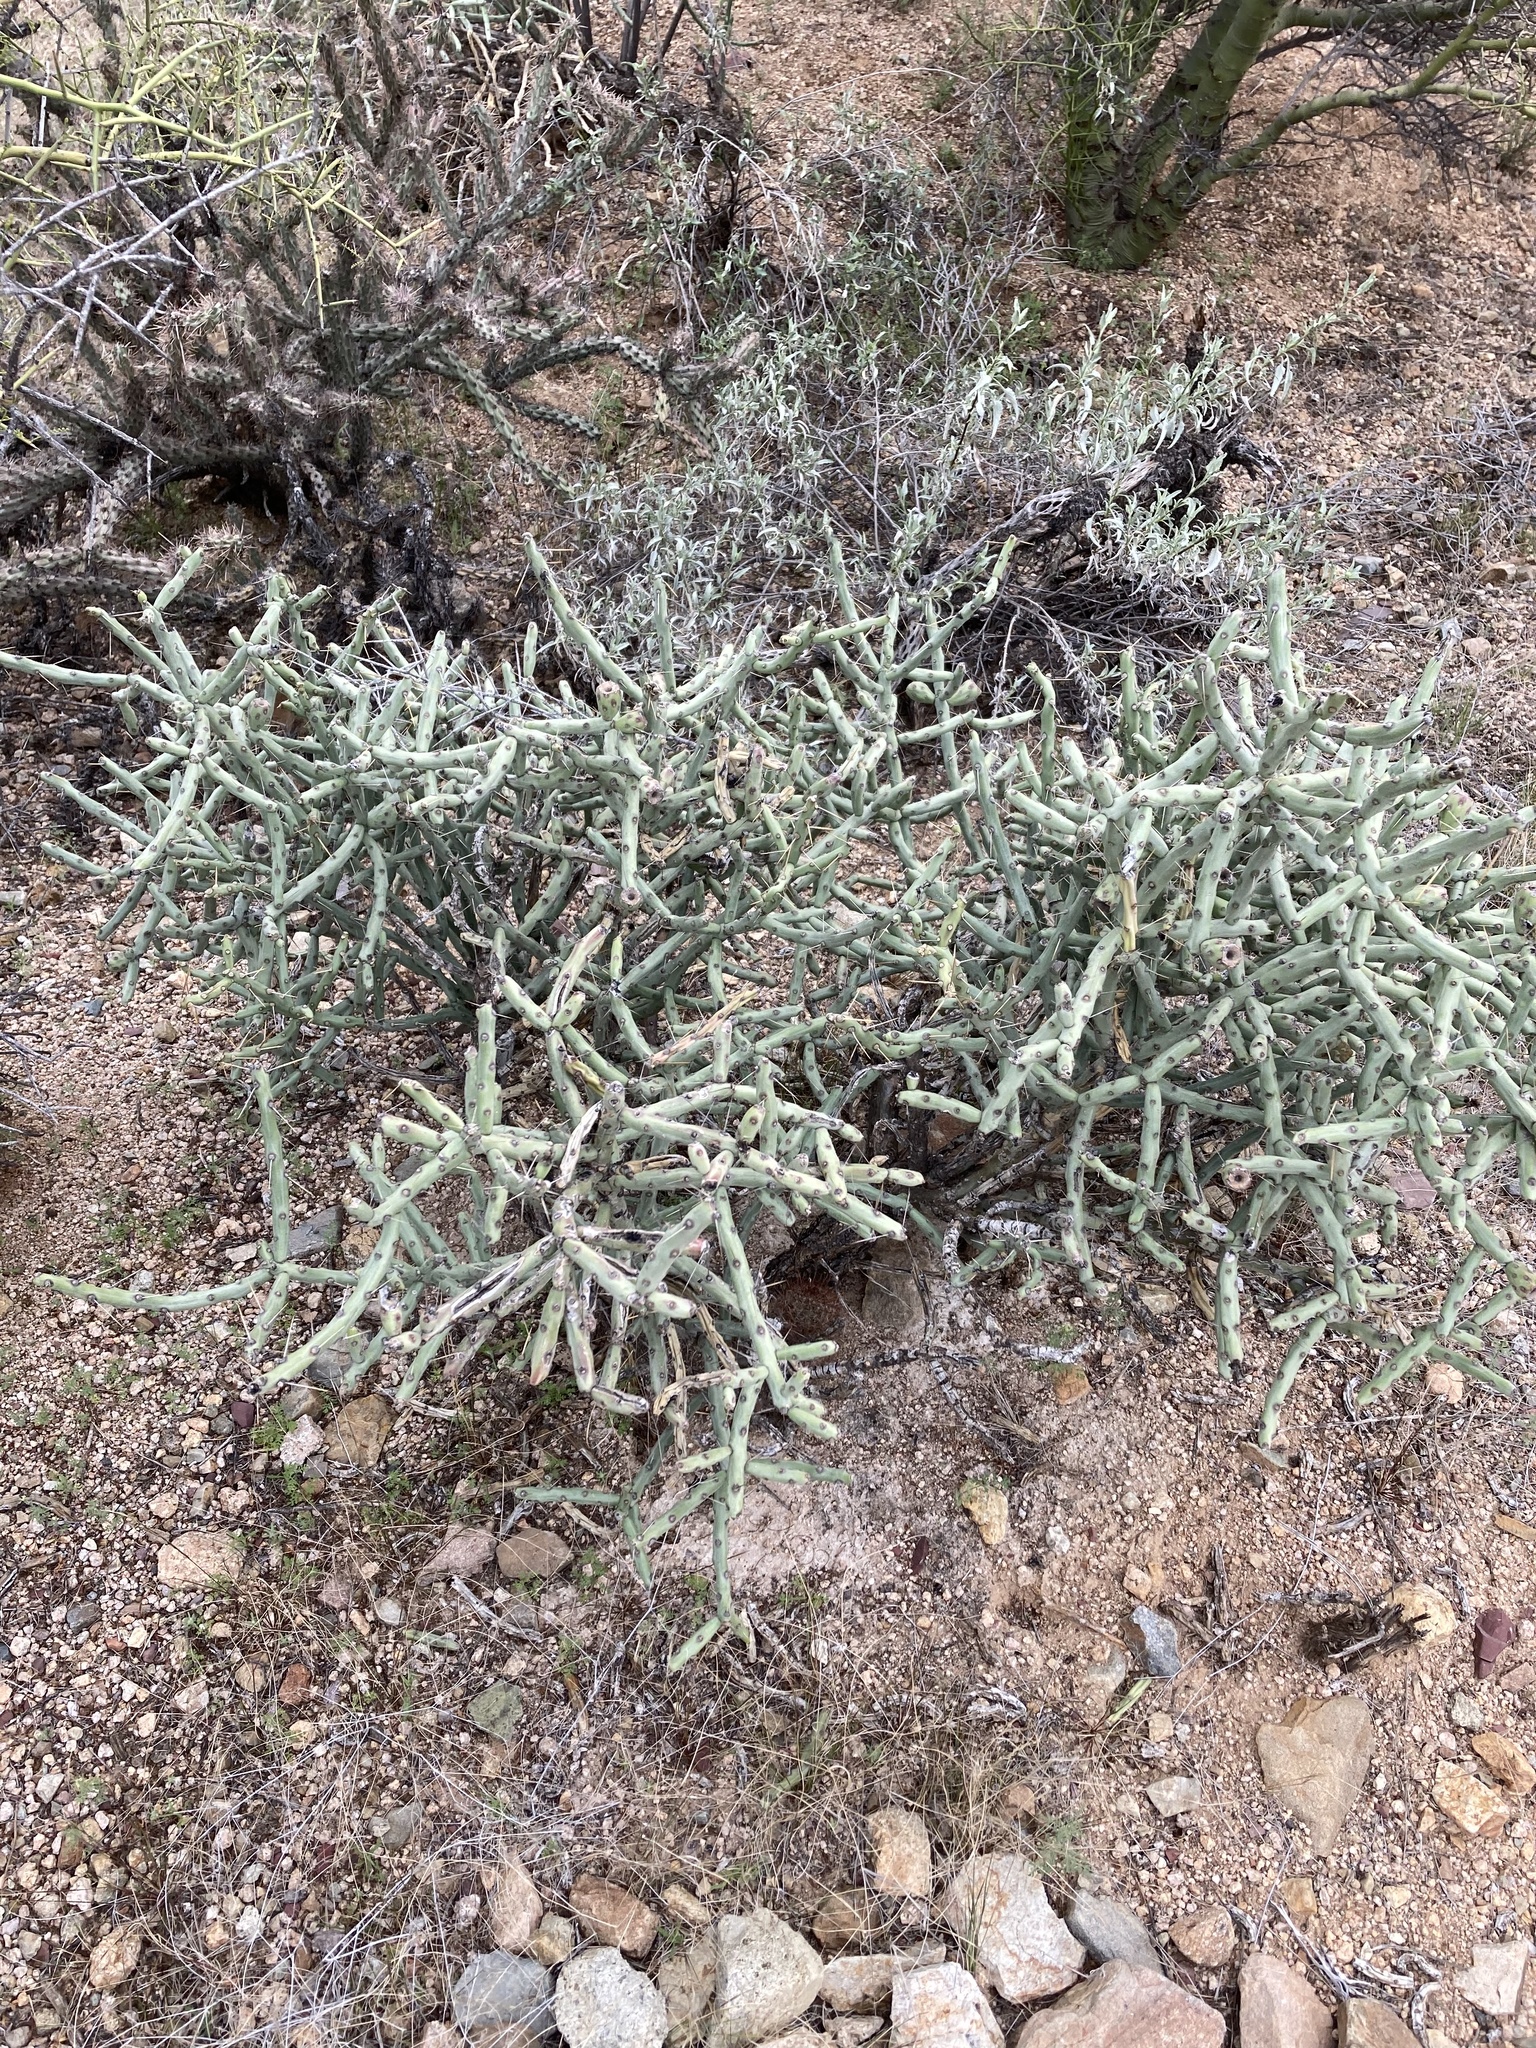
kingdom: Plantae
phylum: Tracheophyta
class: Magnoliopsida
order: Caryophyllales
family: Cactaceae
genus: Cylindropuntia
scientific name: Cylindropuntia arbuscula
